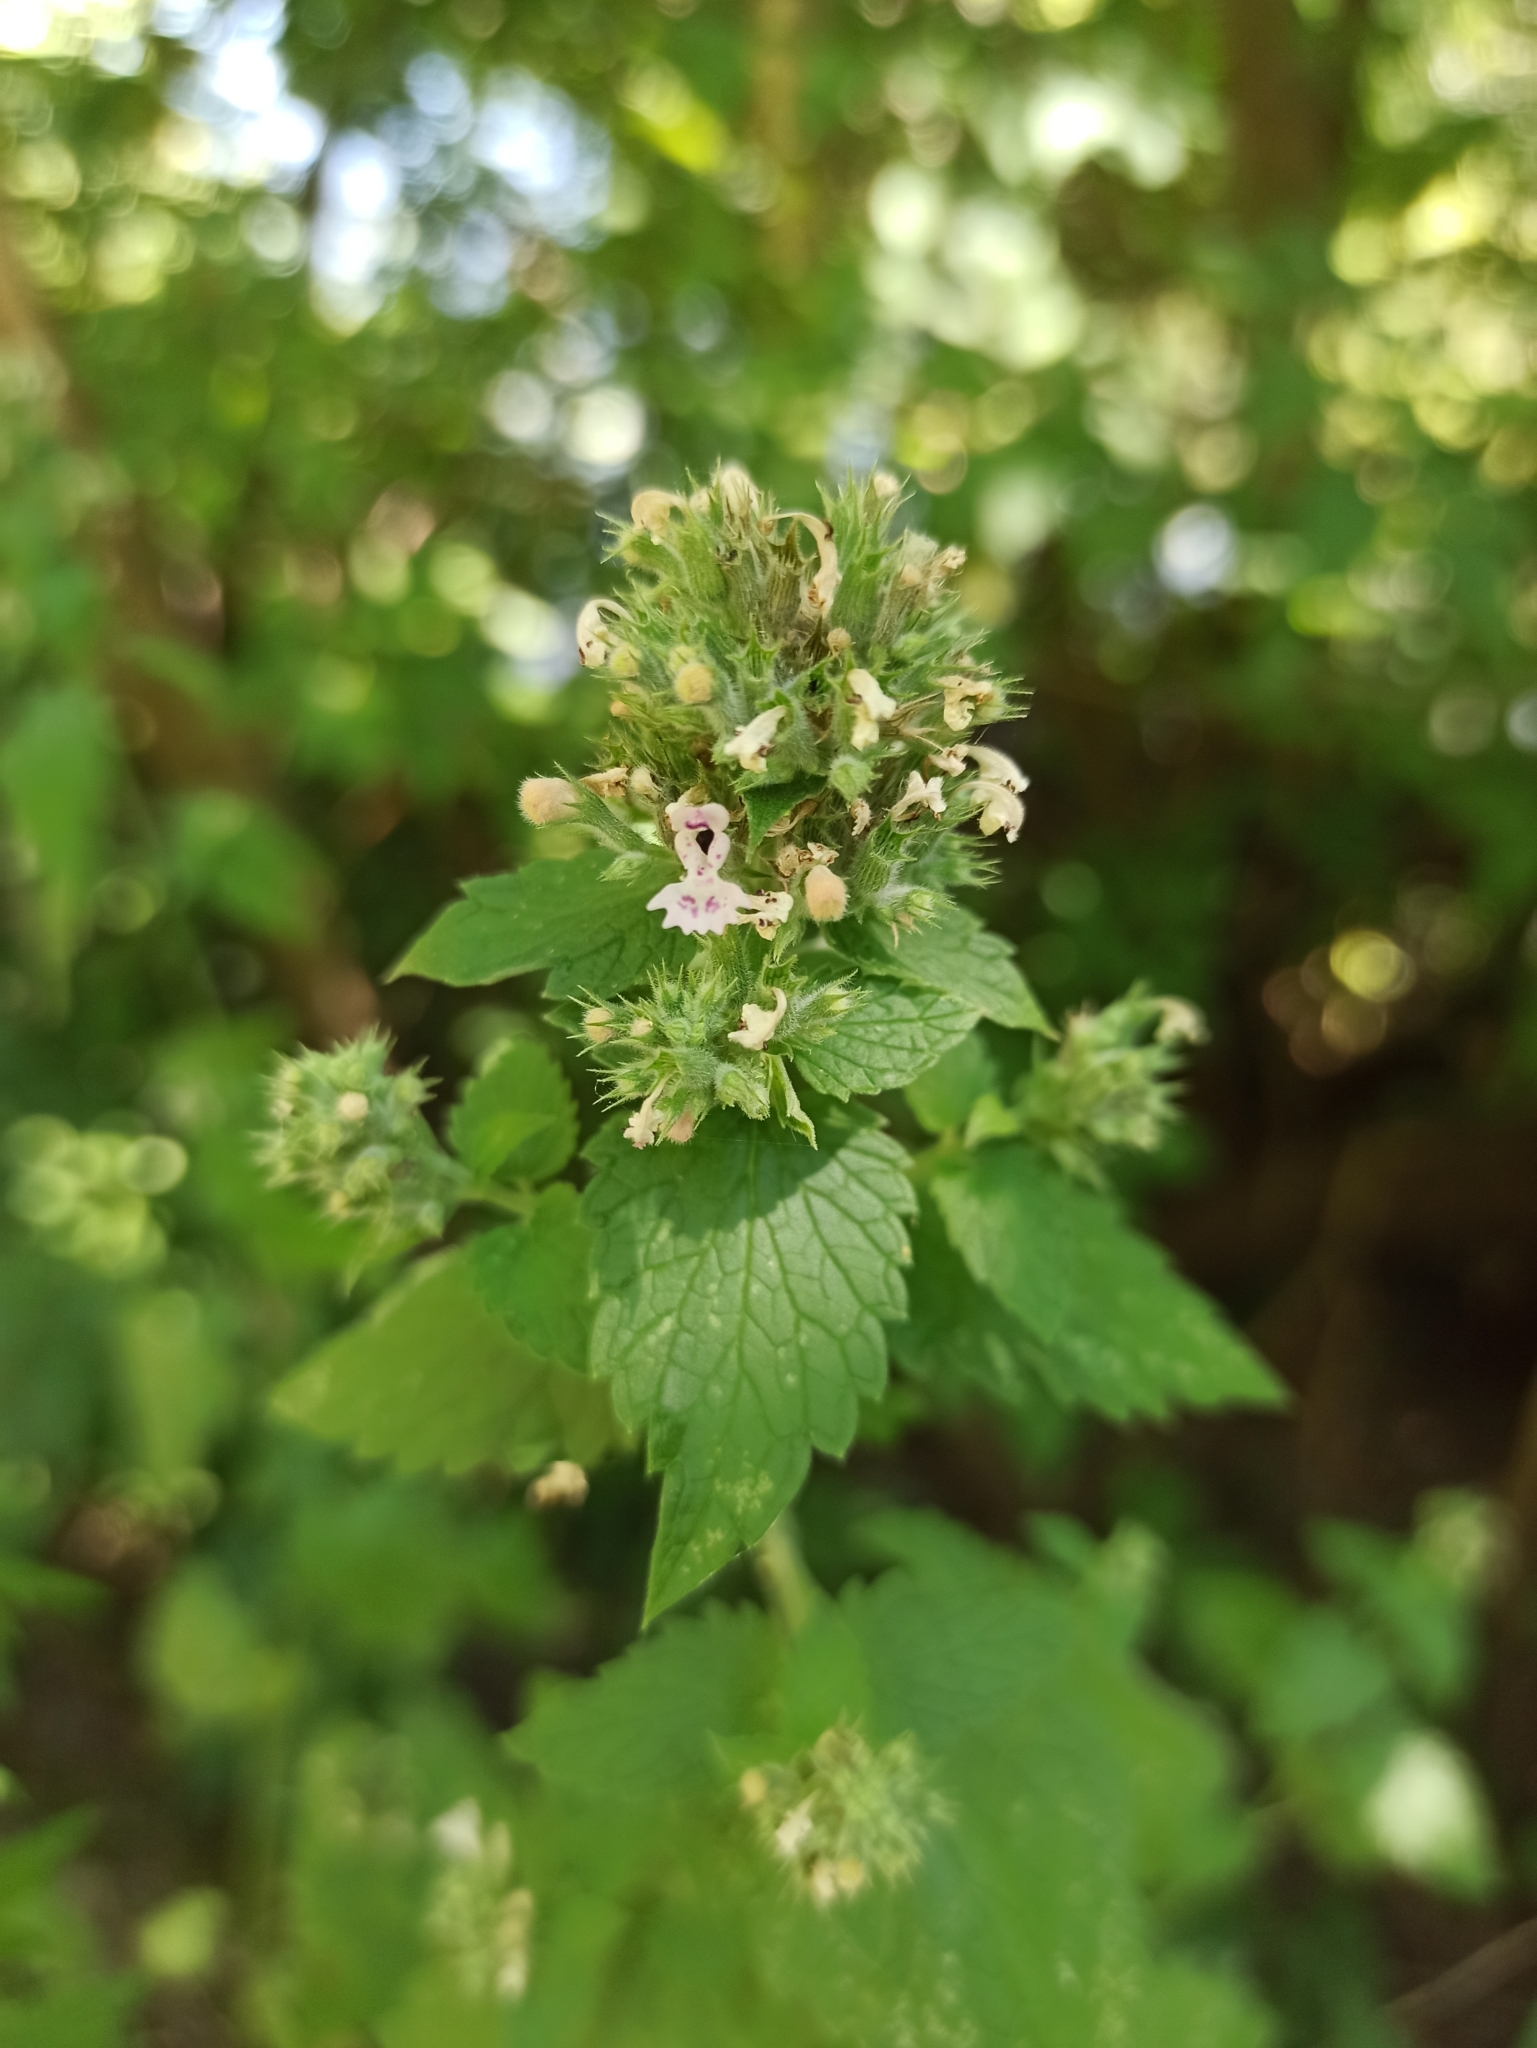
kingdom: Plantae
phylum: Tracheophyta
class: Magnoliopsida
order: Lamiales
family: Lamiaceae
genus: Nepeta
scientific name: Nepeta cataria
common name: Catnip
